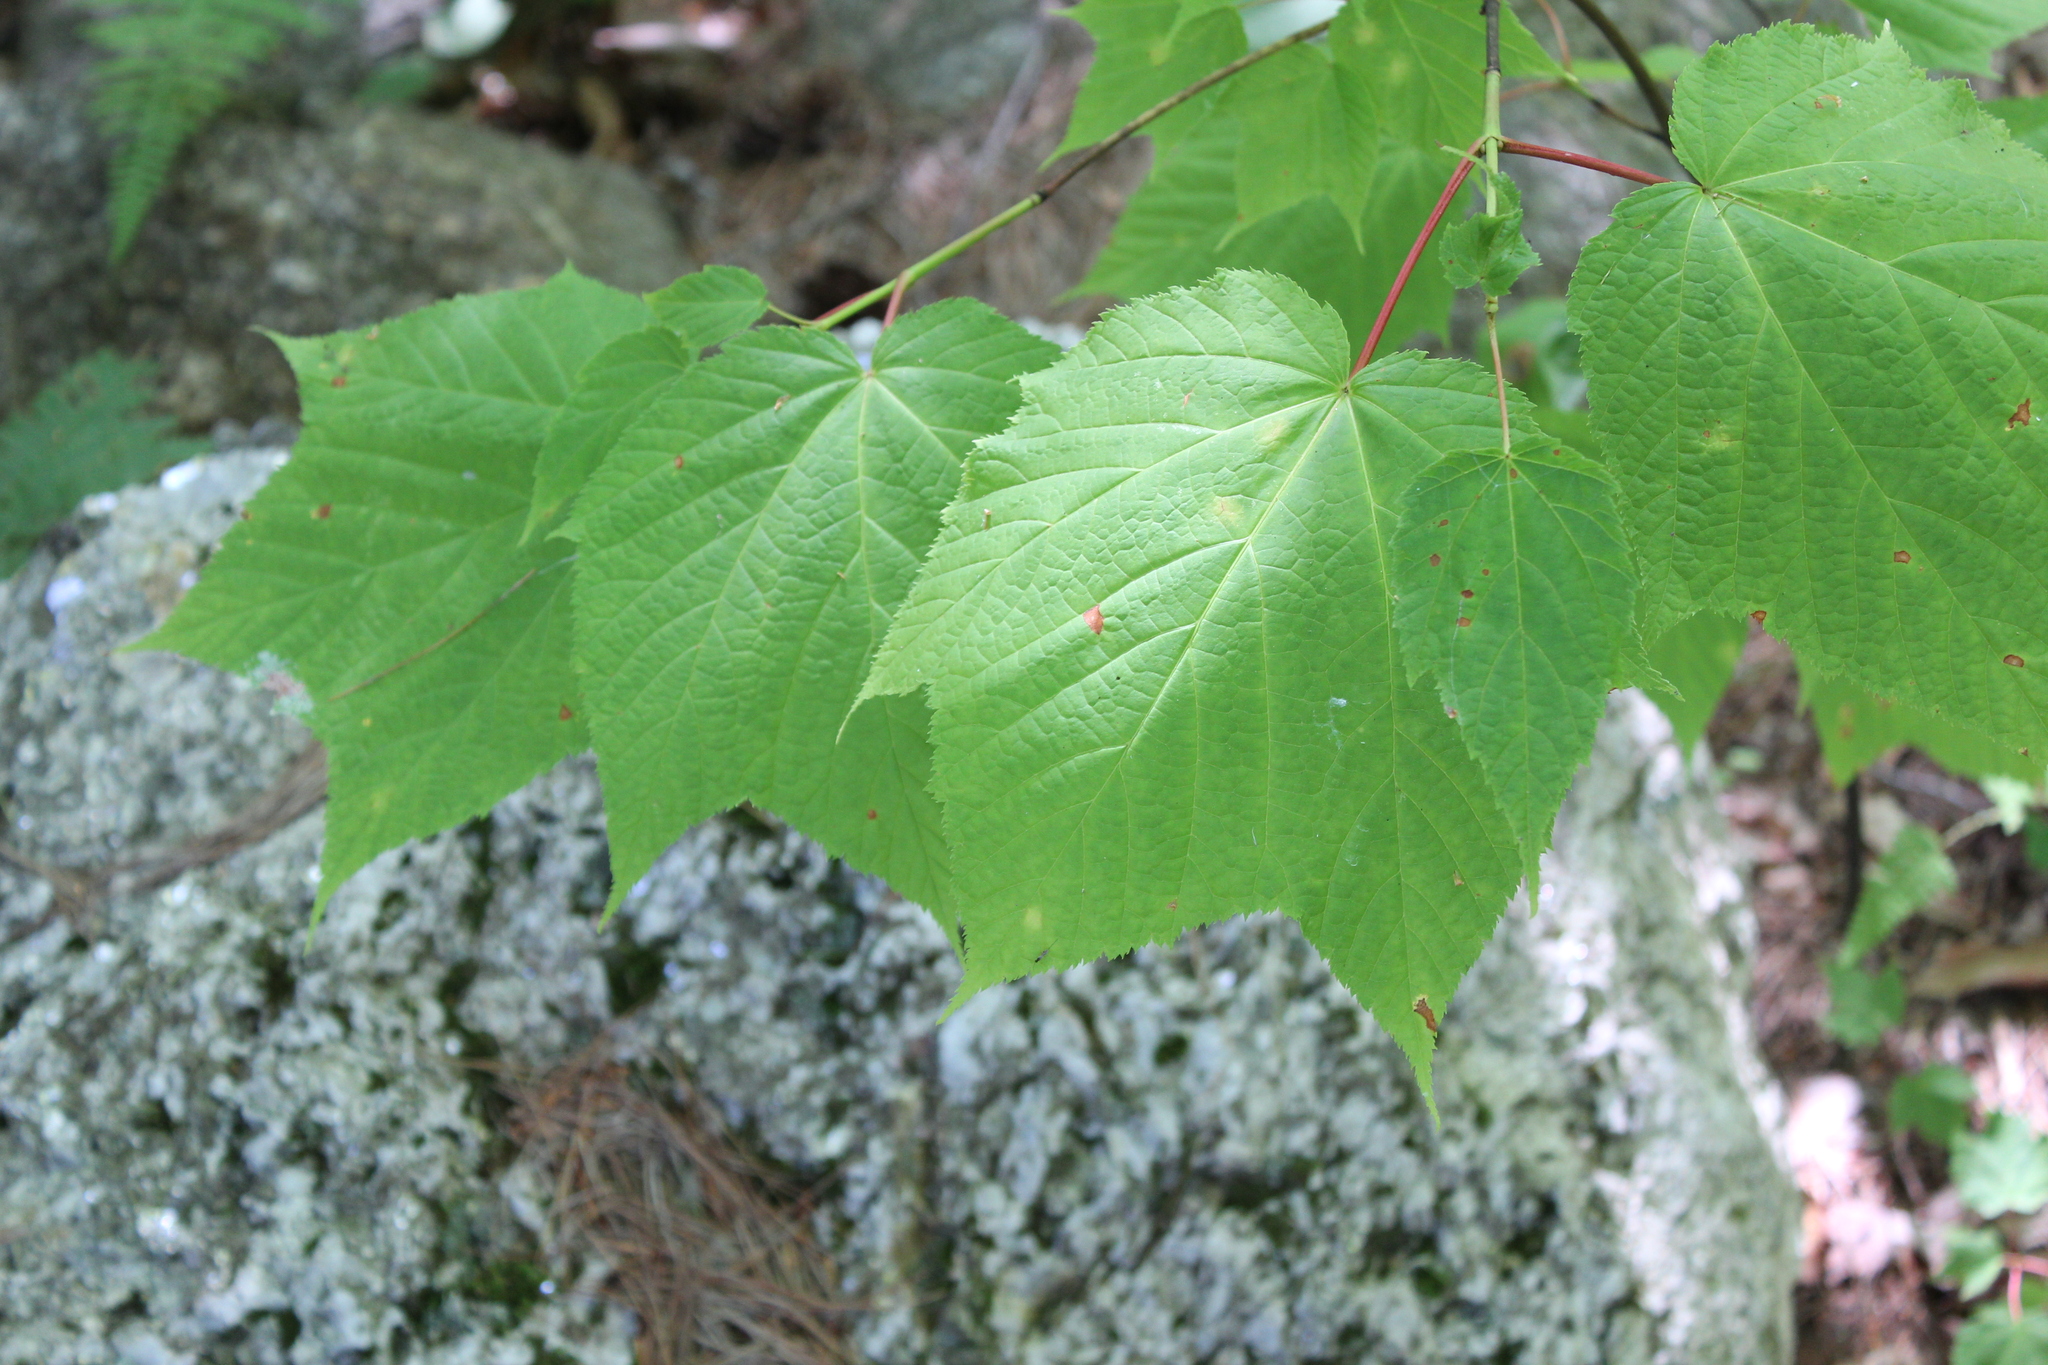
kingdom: Plantae
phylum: Tracheophyta
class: Magnoliopsida
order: Sapindales
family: Sapindaceae
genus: Acer
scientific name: Acer pensylvanicum
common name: Moosewood
